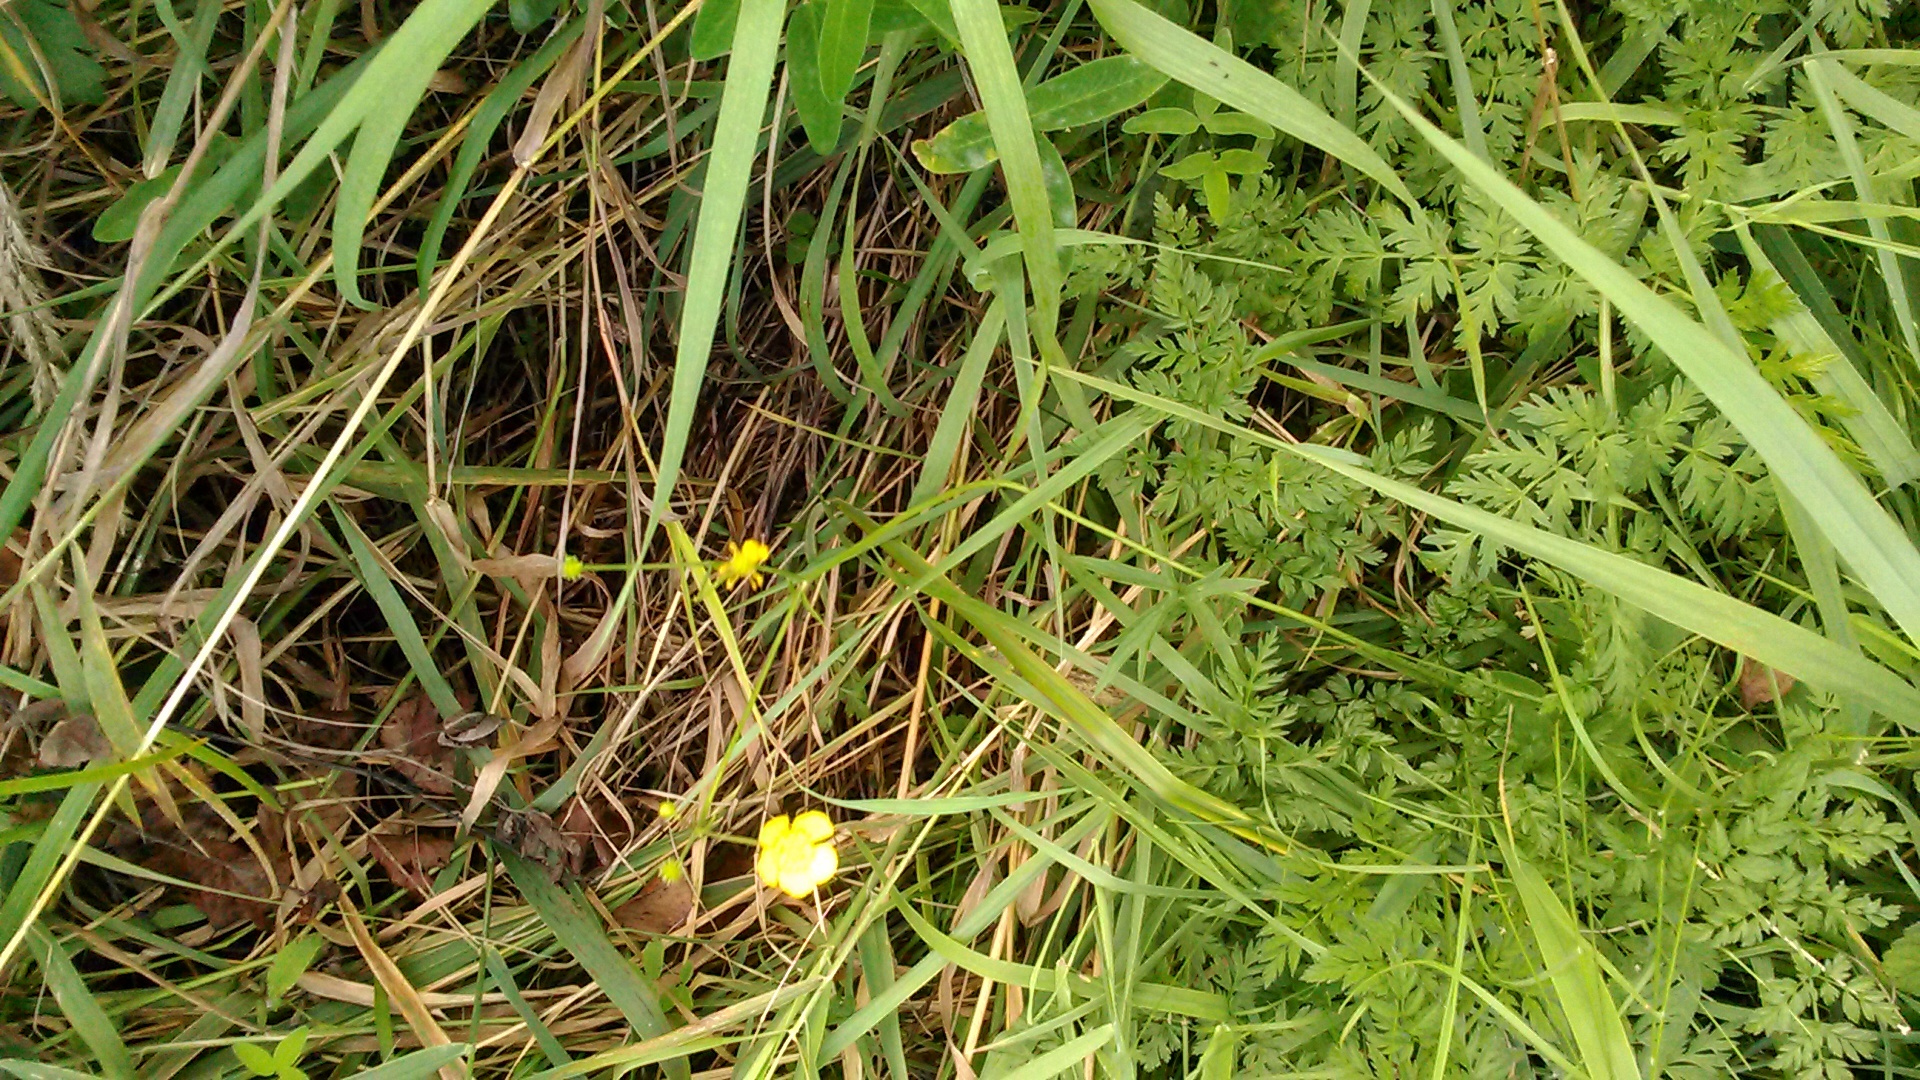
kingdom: Plantae
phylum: Tracheophyta
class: Magnoliopsida
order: Ranunculales
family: Ranunculaceae
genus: Ranunculus
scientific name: Ranunculus acris
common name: Meadow buttercup
